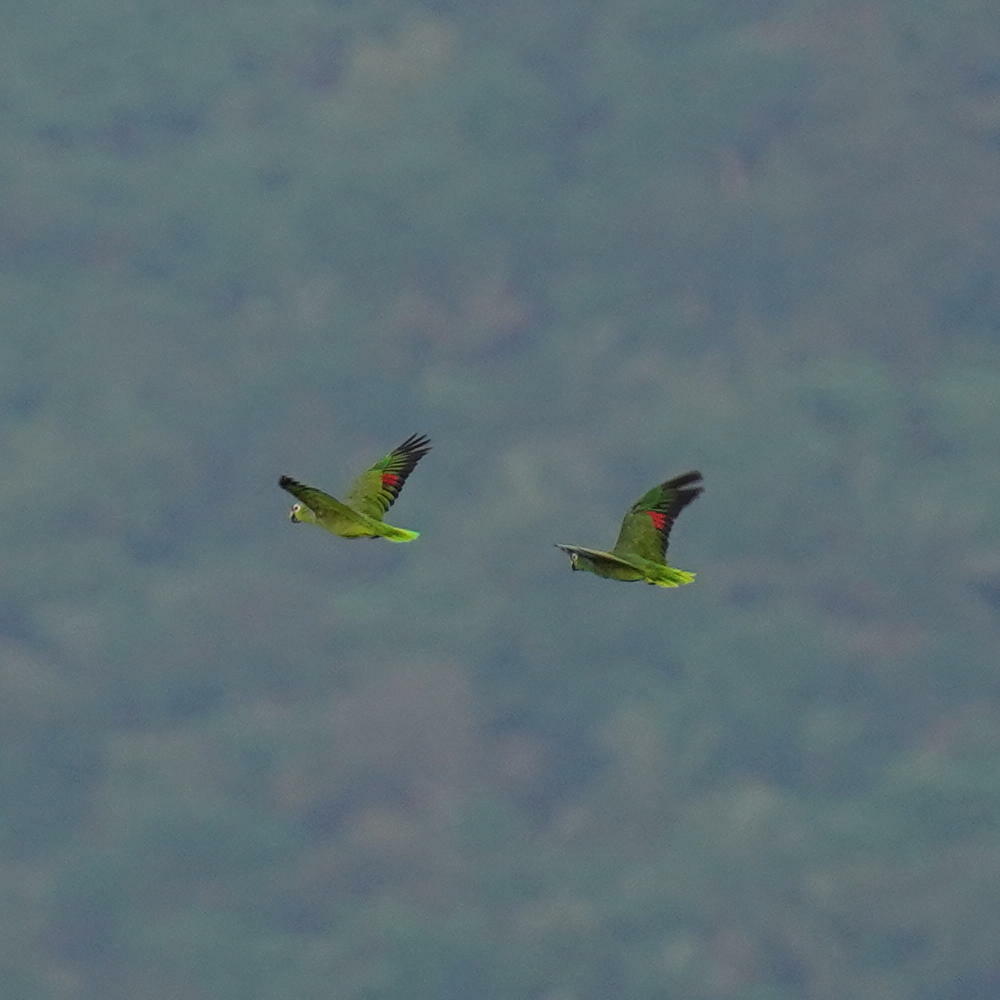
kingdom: Animalia
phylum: Chordata
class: Aves
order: Psittaciformes
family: Psittacidae
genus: Amazona
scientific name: Amazona autumnalis
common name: Red-lored amazon
